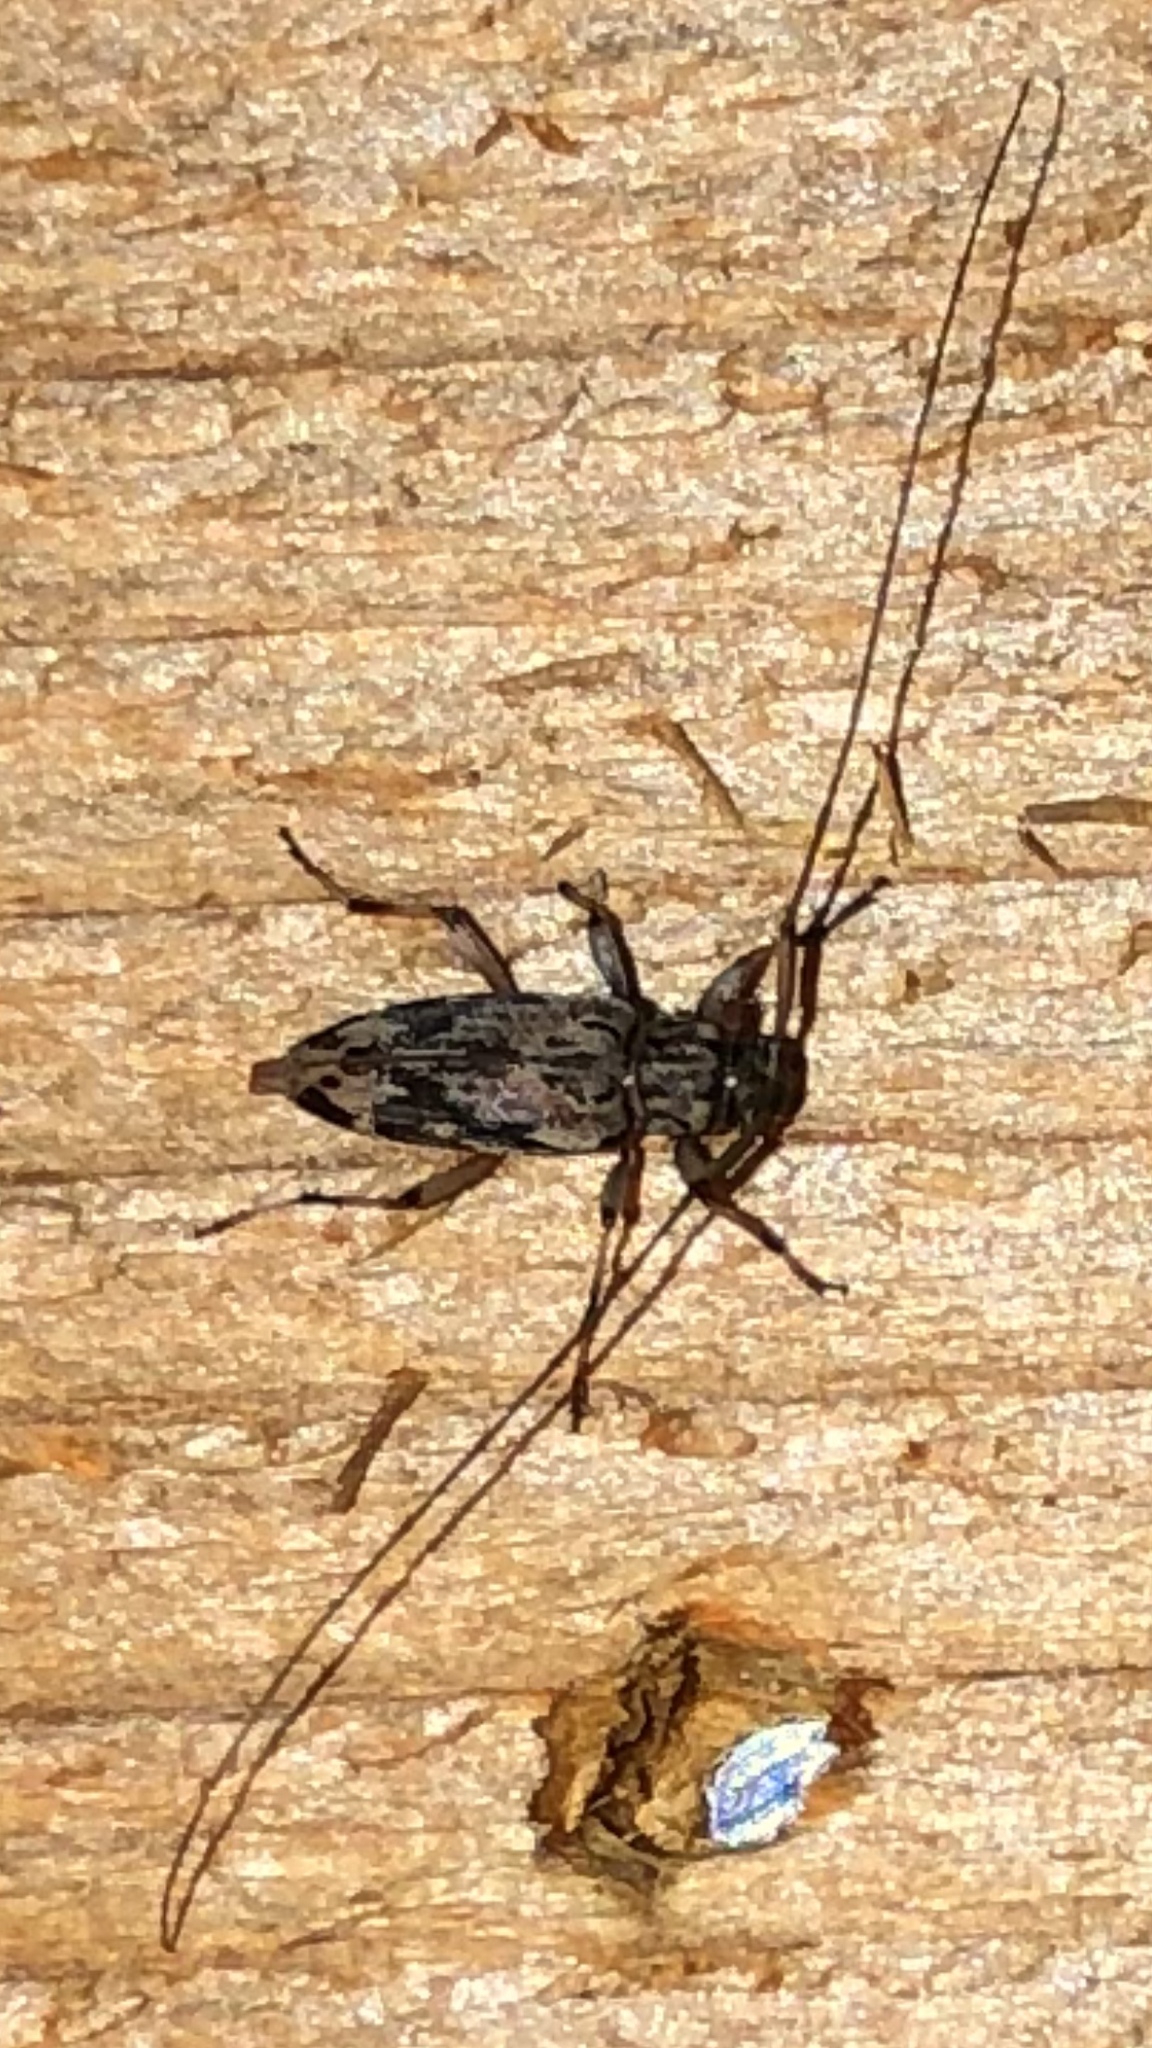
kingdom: Animalia
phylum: Arthropoda
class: Insecta
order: Coleoptera
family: Cerambycidae
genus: Lepturges
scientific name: Lepturges confluens
